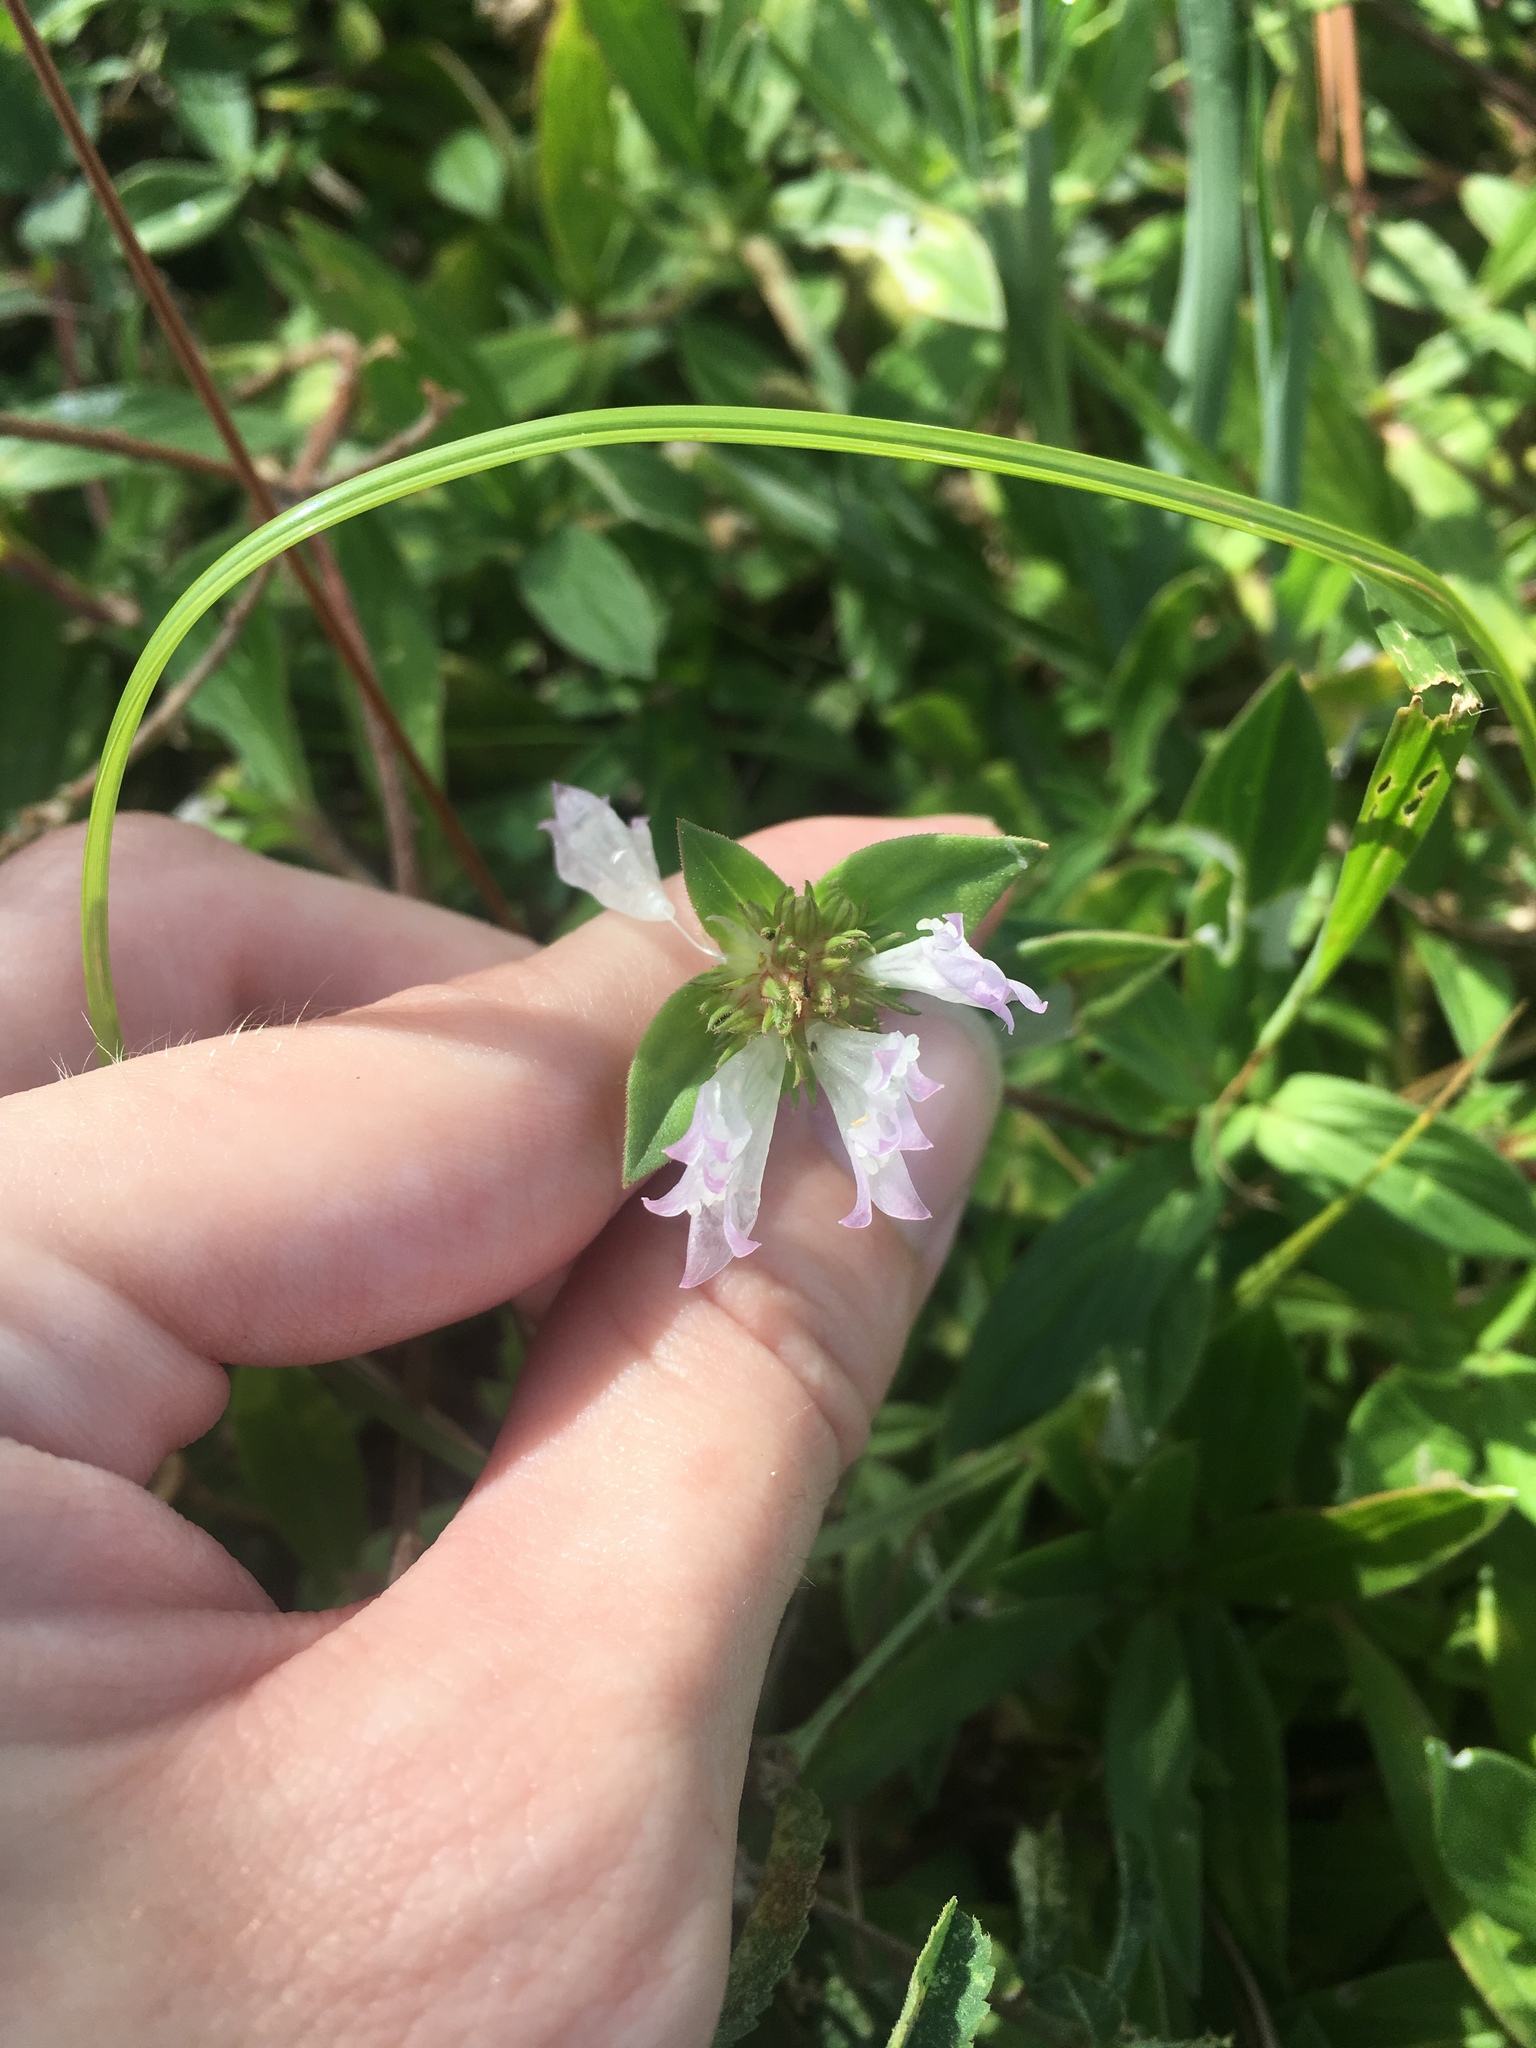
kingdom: Plantae
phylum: Tracheophyta
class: Magnoliopsida
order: Gentianales
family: Rubiaceae
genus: Richardia
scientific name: Richardia grandiflora
